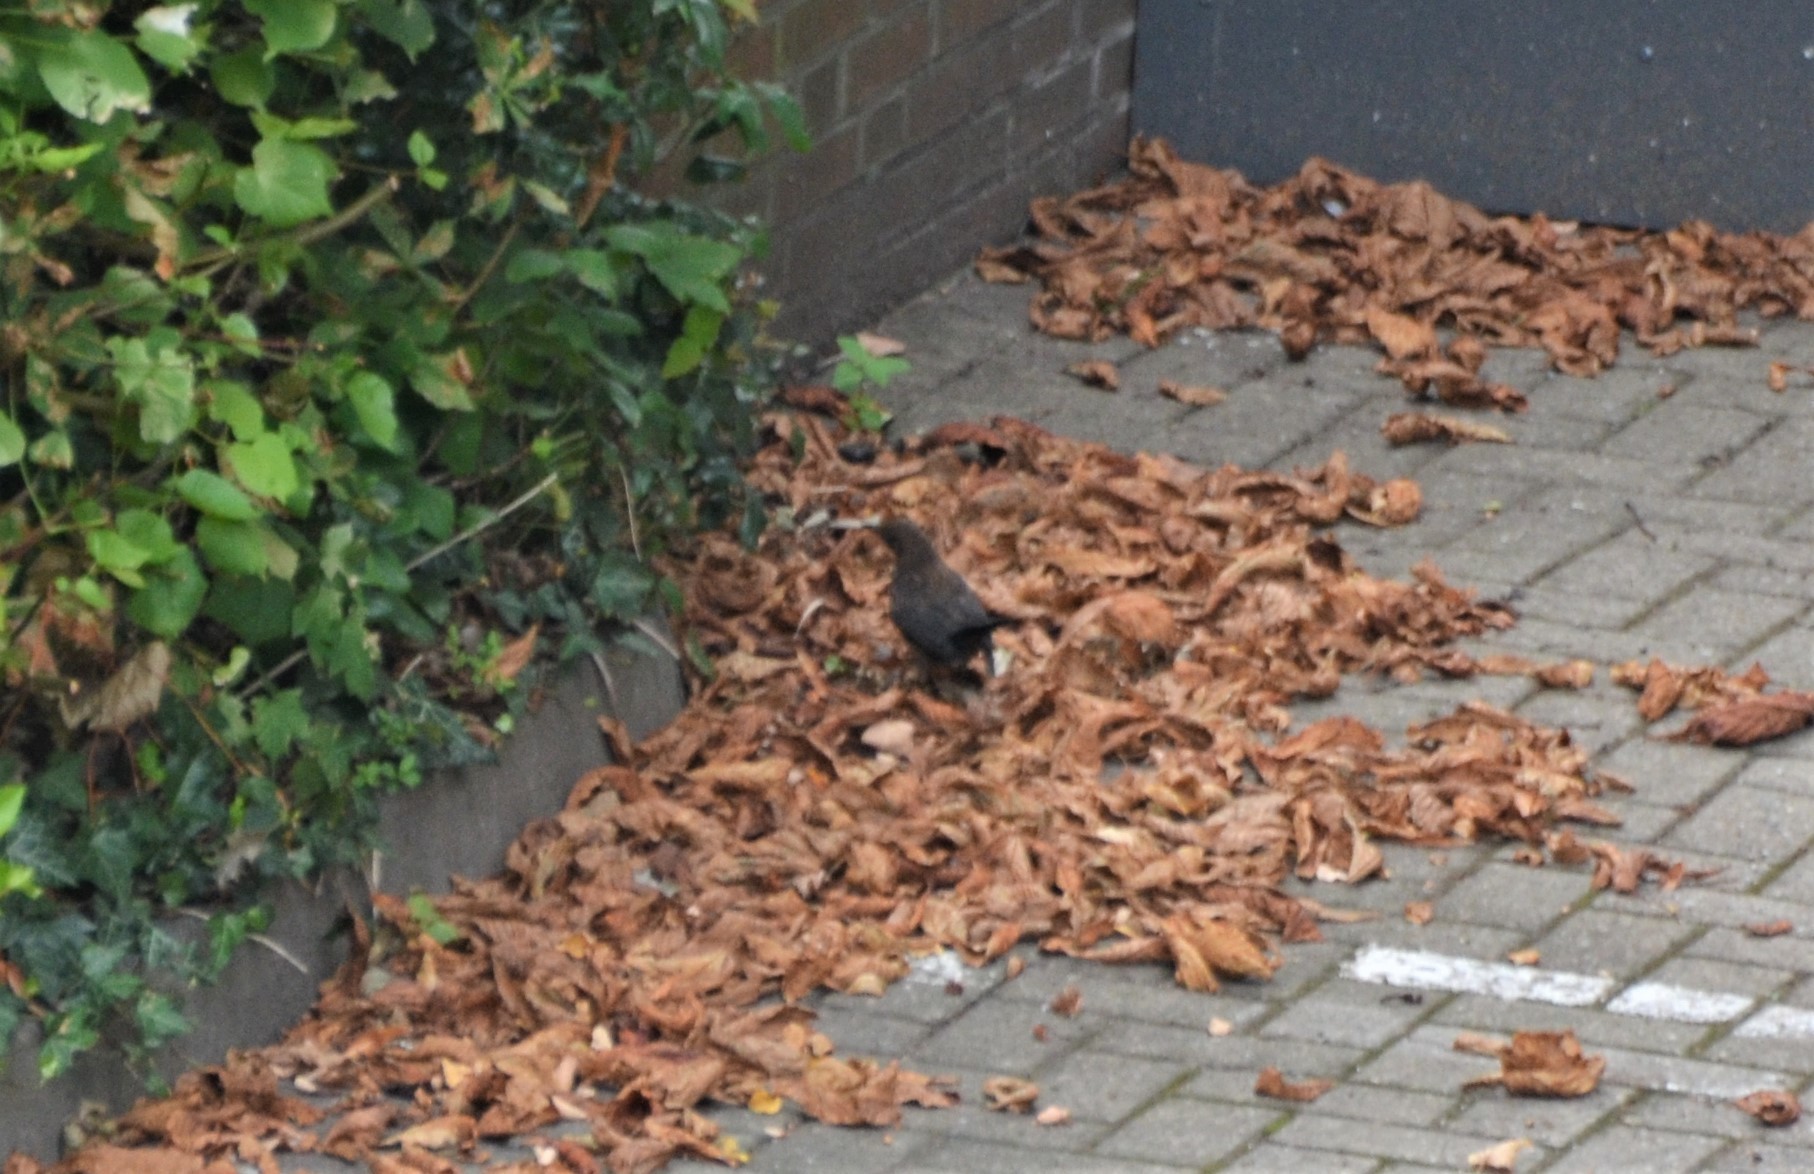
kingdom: Animalia
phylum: Chordata
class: Aves
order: Passeriformes
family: Turdidae
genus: Turdus
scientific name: Turdus merula
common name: Common blackbird
